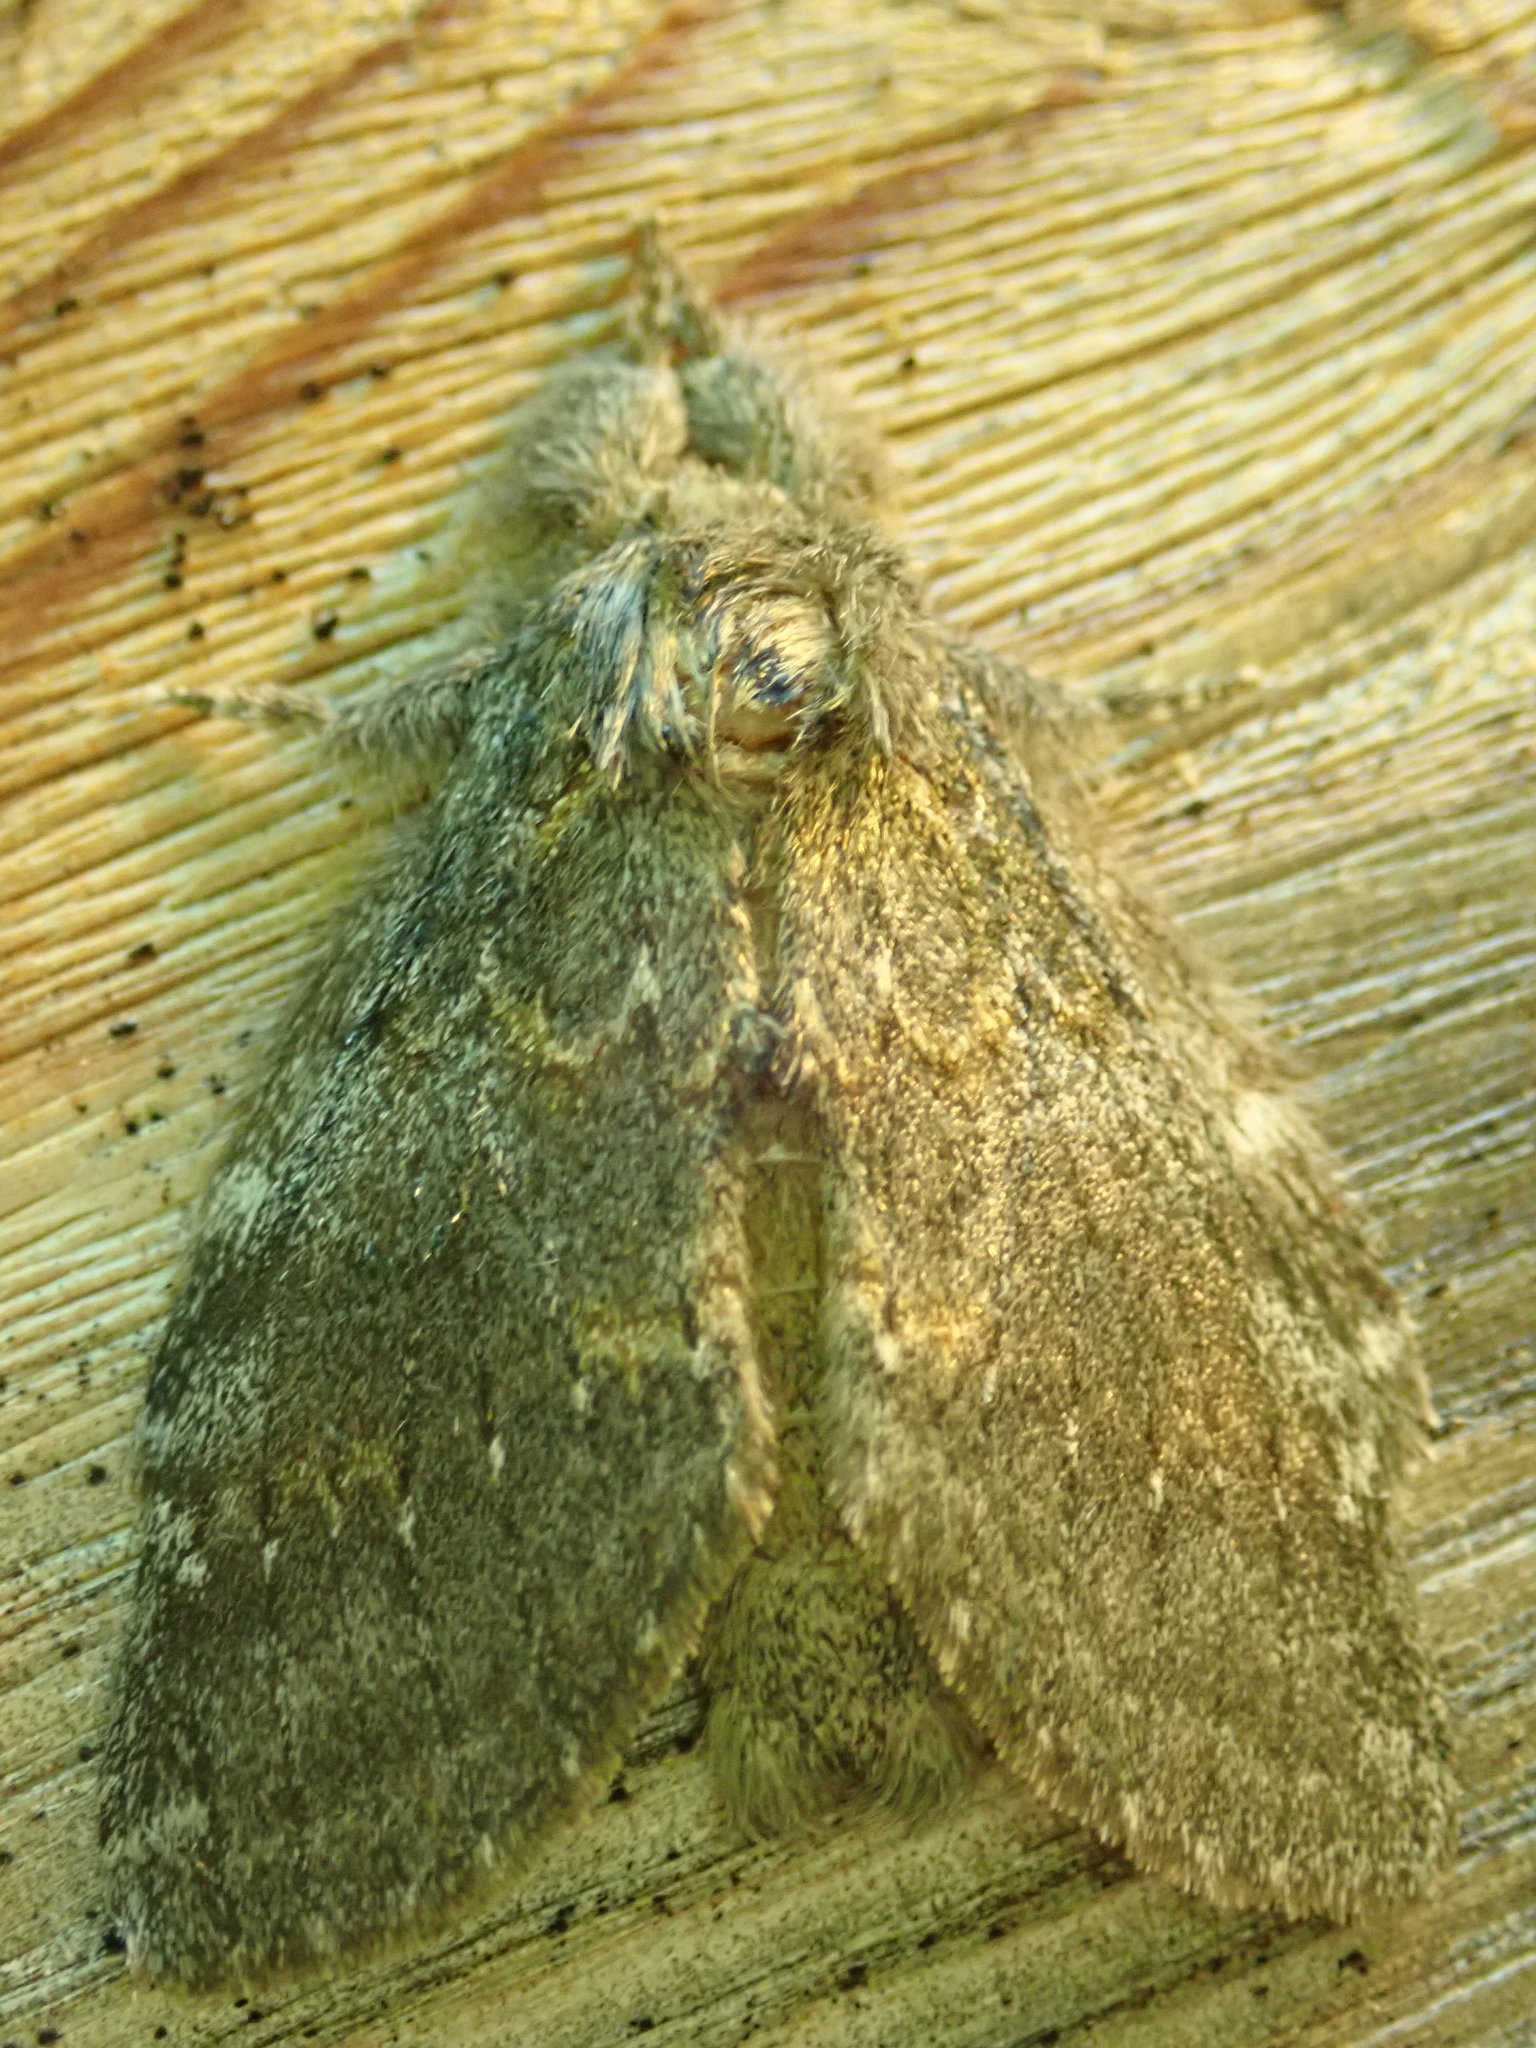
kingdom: Animalia
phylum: Arthropoda
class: Insecta
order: Lepidoptera
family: Notodontidae
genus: Peridea
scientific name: Peridea angulosa
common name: Angulose prominent
